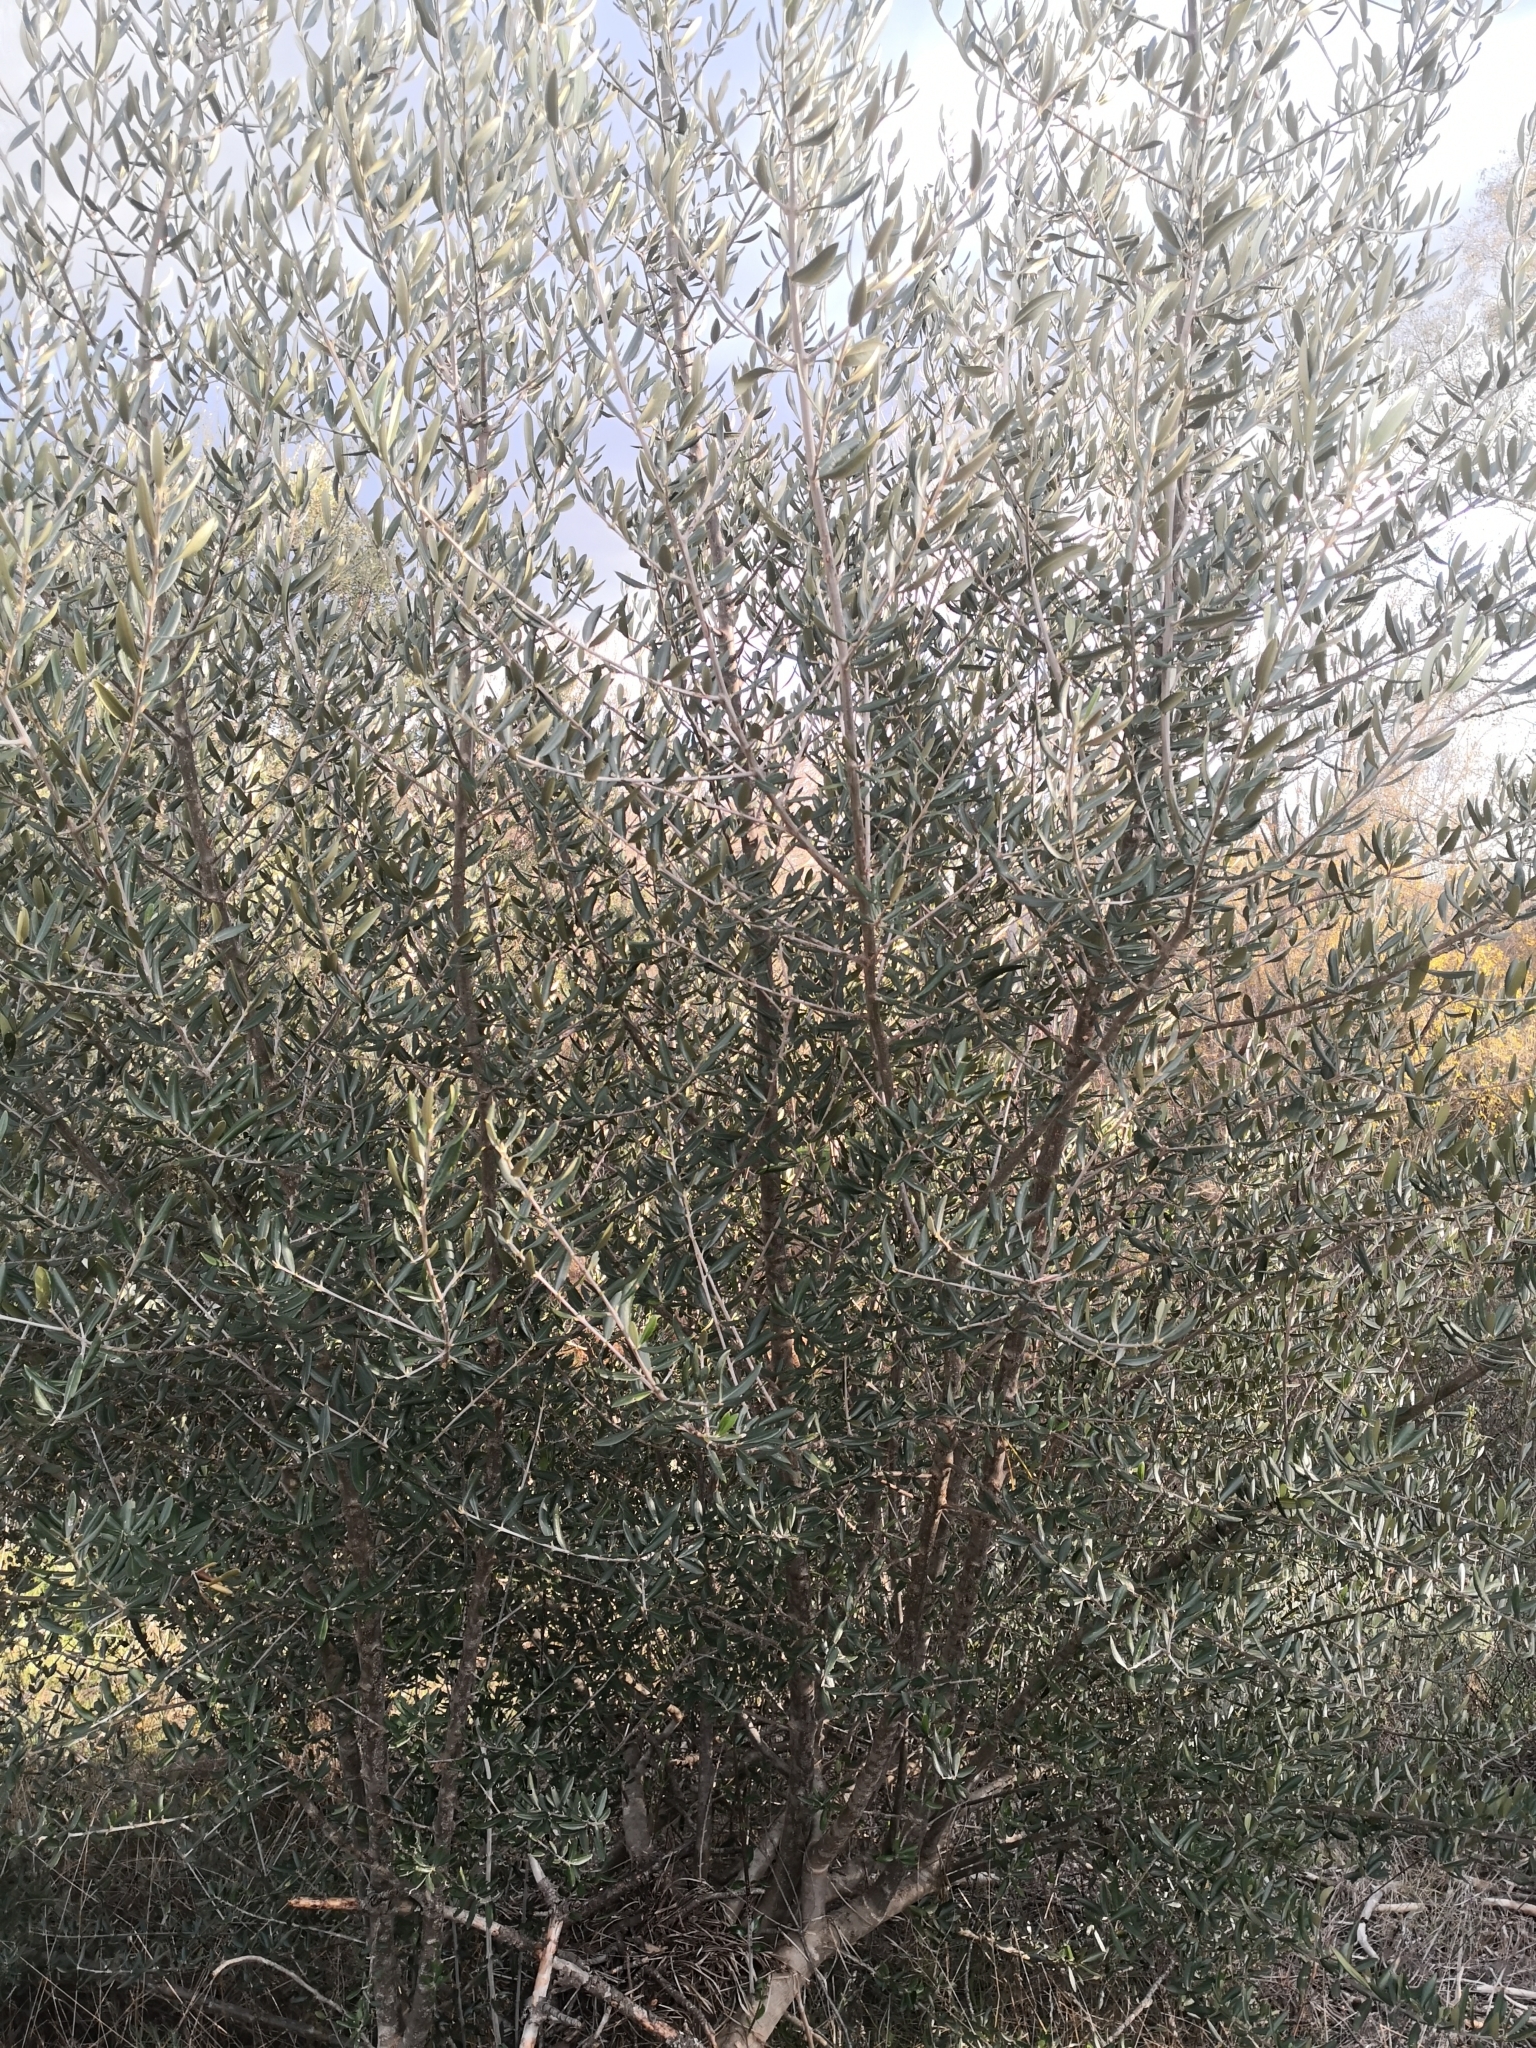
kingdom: Plantae
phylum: Tracheophyta
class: Magnoliopsida
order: Lamiales
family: Oleaceae
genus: Olea
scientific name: Olea europaea
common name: Olive
